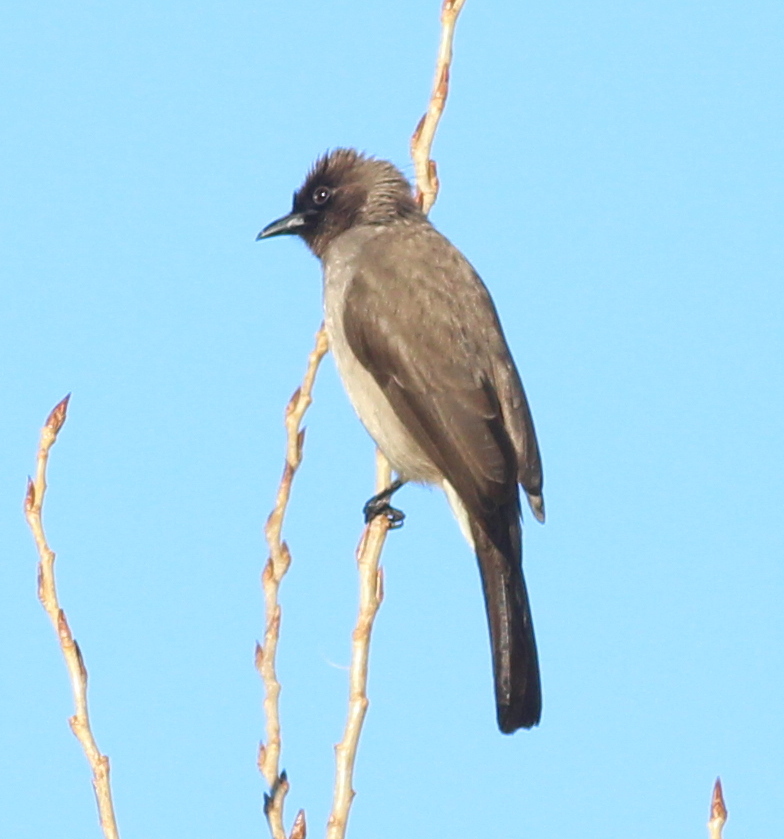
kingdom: Animalia
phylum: Chordata
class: Aves
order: Passeriformes
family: Pycnonotidae
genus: Pycnonotus
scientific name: Pycnonotus barbatus
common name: Common bulbul
